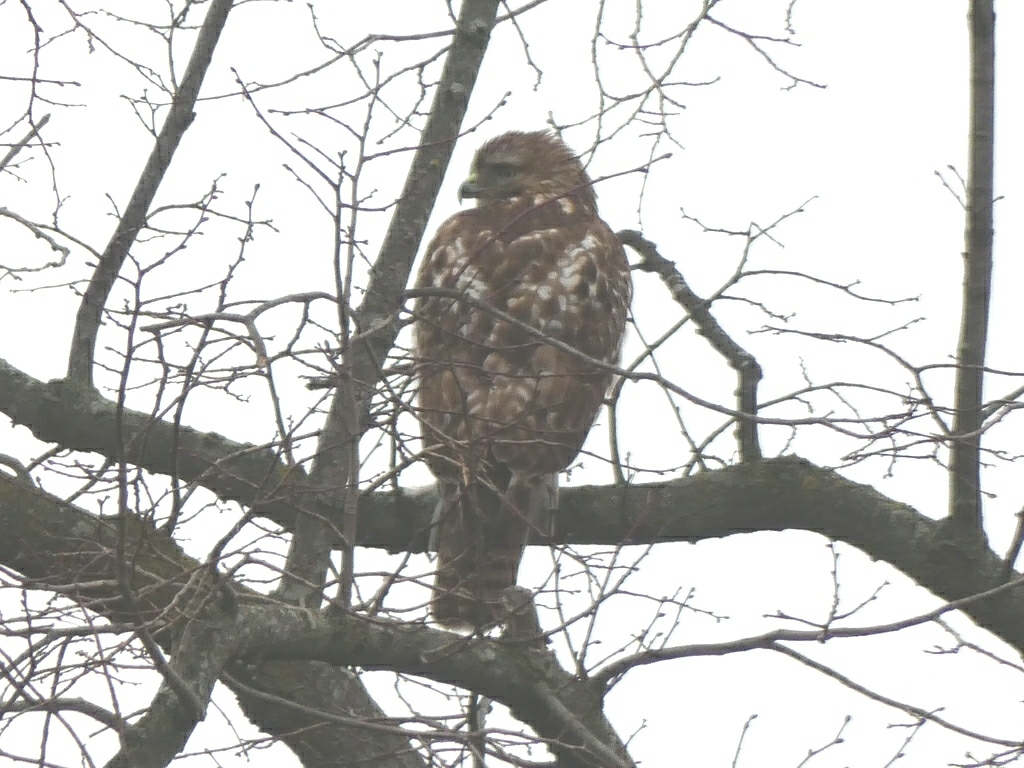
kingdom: Animalia
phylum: Chordata
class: Aves
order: Accipitriformes
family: Accipitridae
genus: Buteo
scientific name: Buteo jamaicensis
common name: Red-tailed hawk
